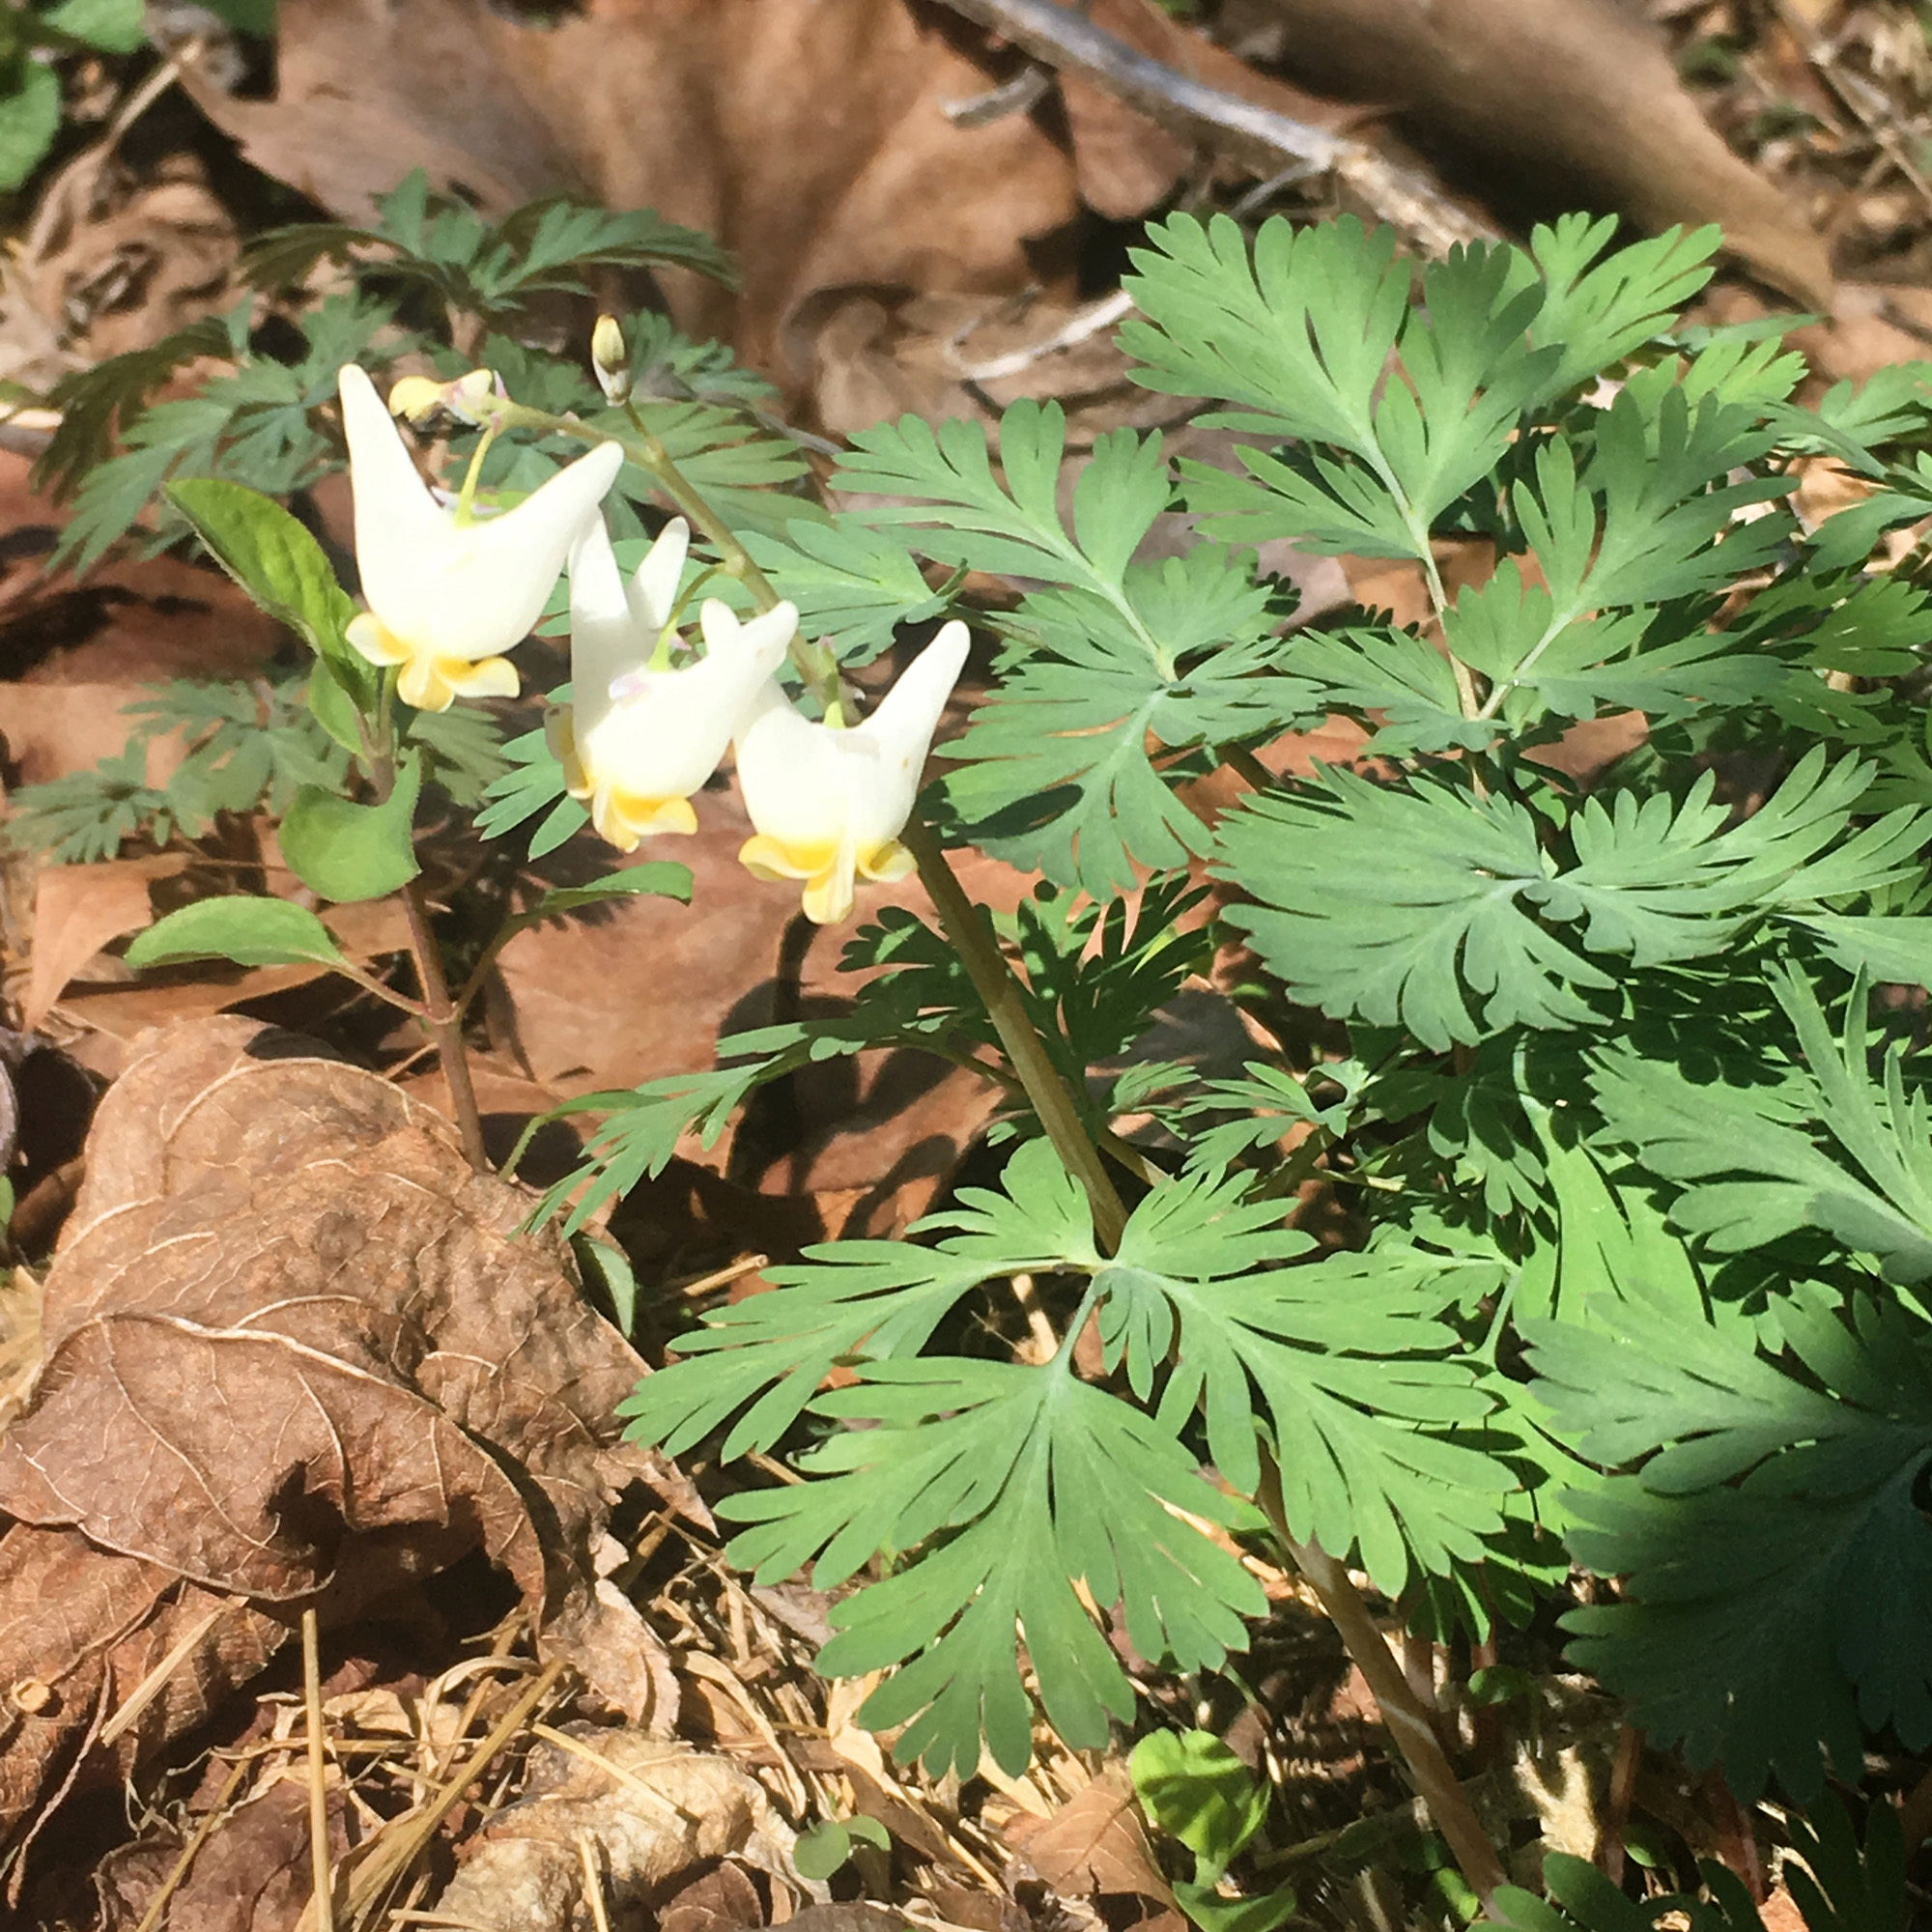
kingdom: Plantae
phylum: Tracheophyta
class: Magnoliopsida
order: Ranunculales
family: Papaveraceae
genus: Dicentra
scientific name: Dicentra cucullaria
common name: Dutchman's breeches
